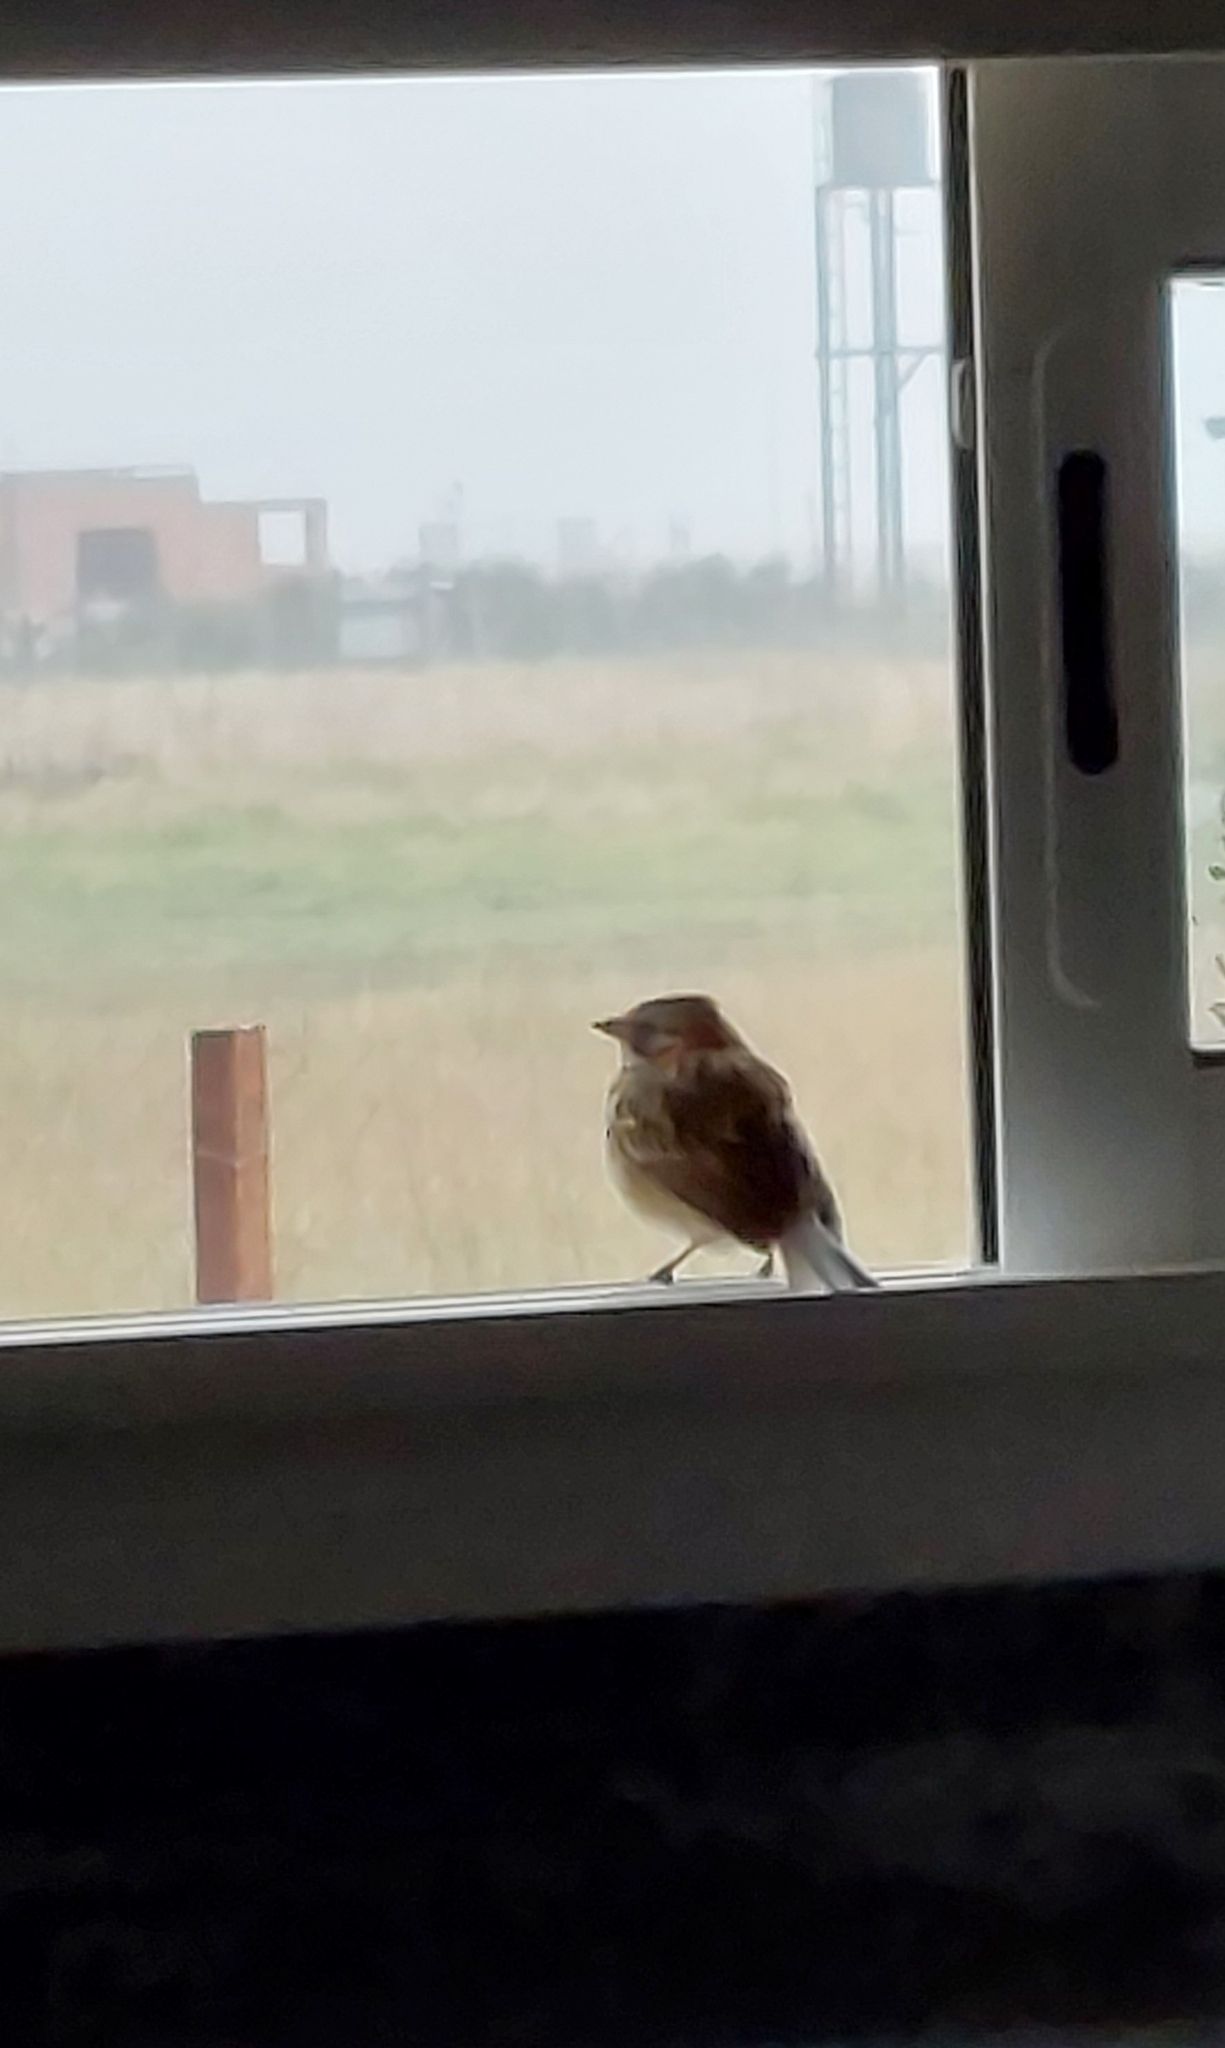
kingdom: Animalia
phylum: Chordata
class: Aves
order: Passeriformes
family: Passerellidae
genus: Zonotrichia
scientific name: Zonotrichia capensis
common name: Rufous-collared sparrow
